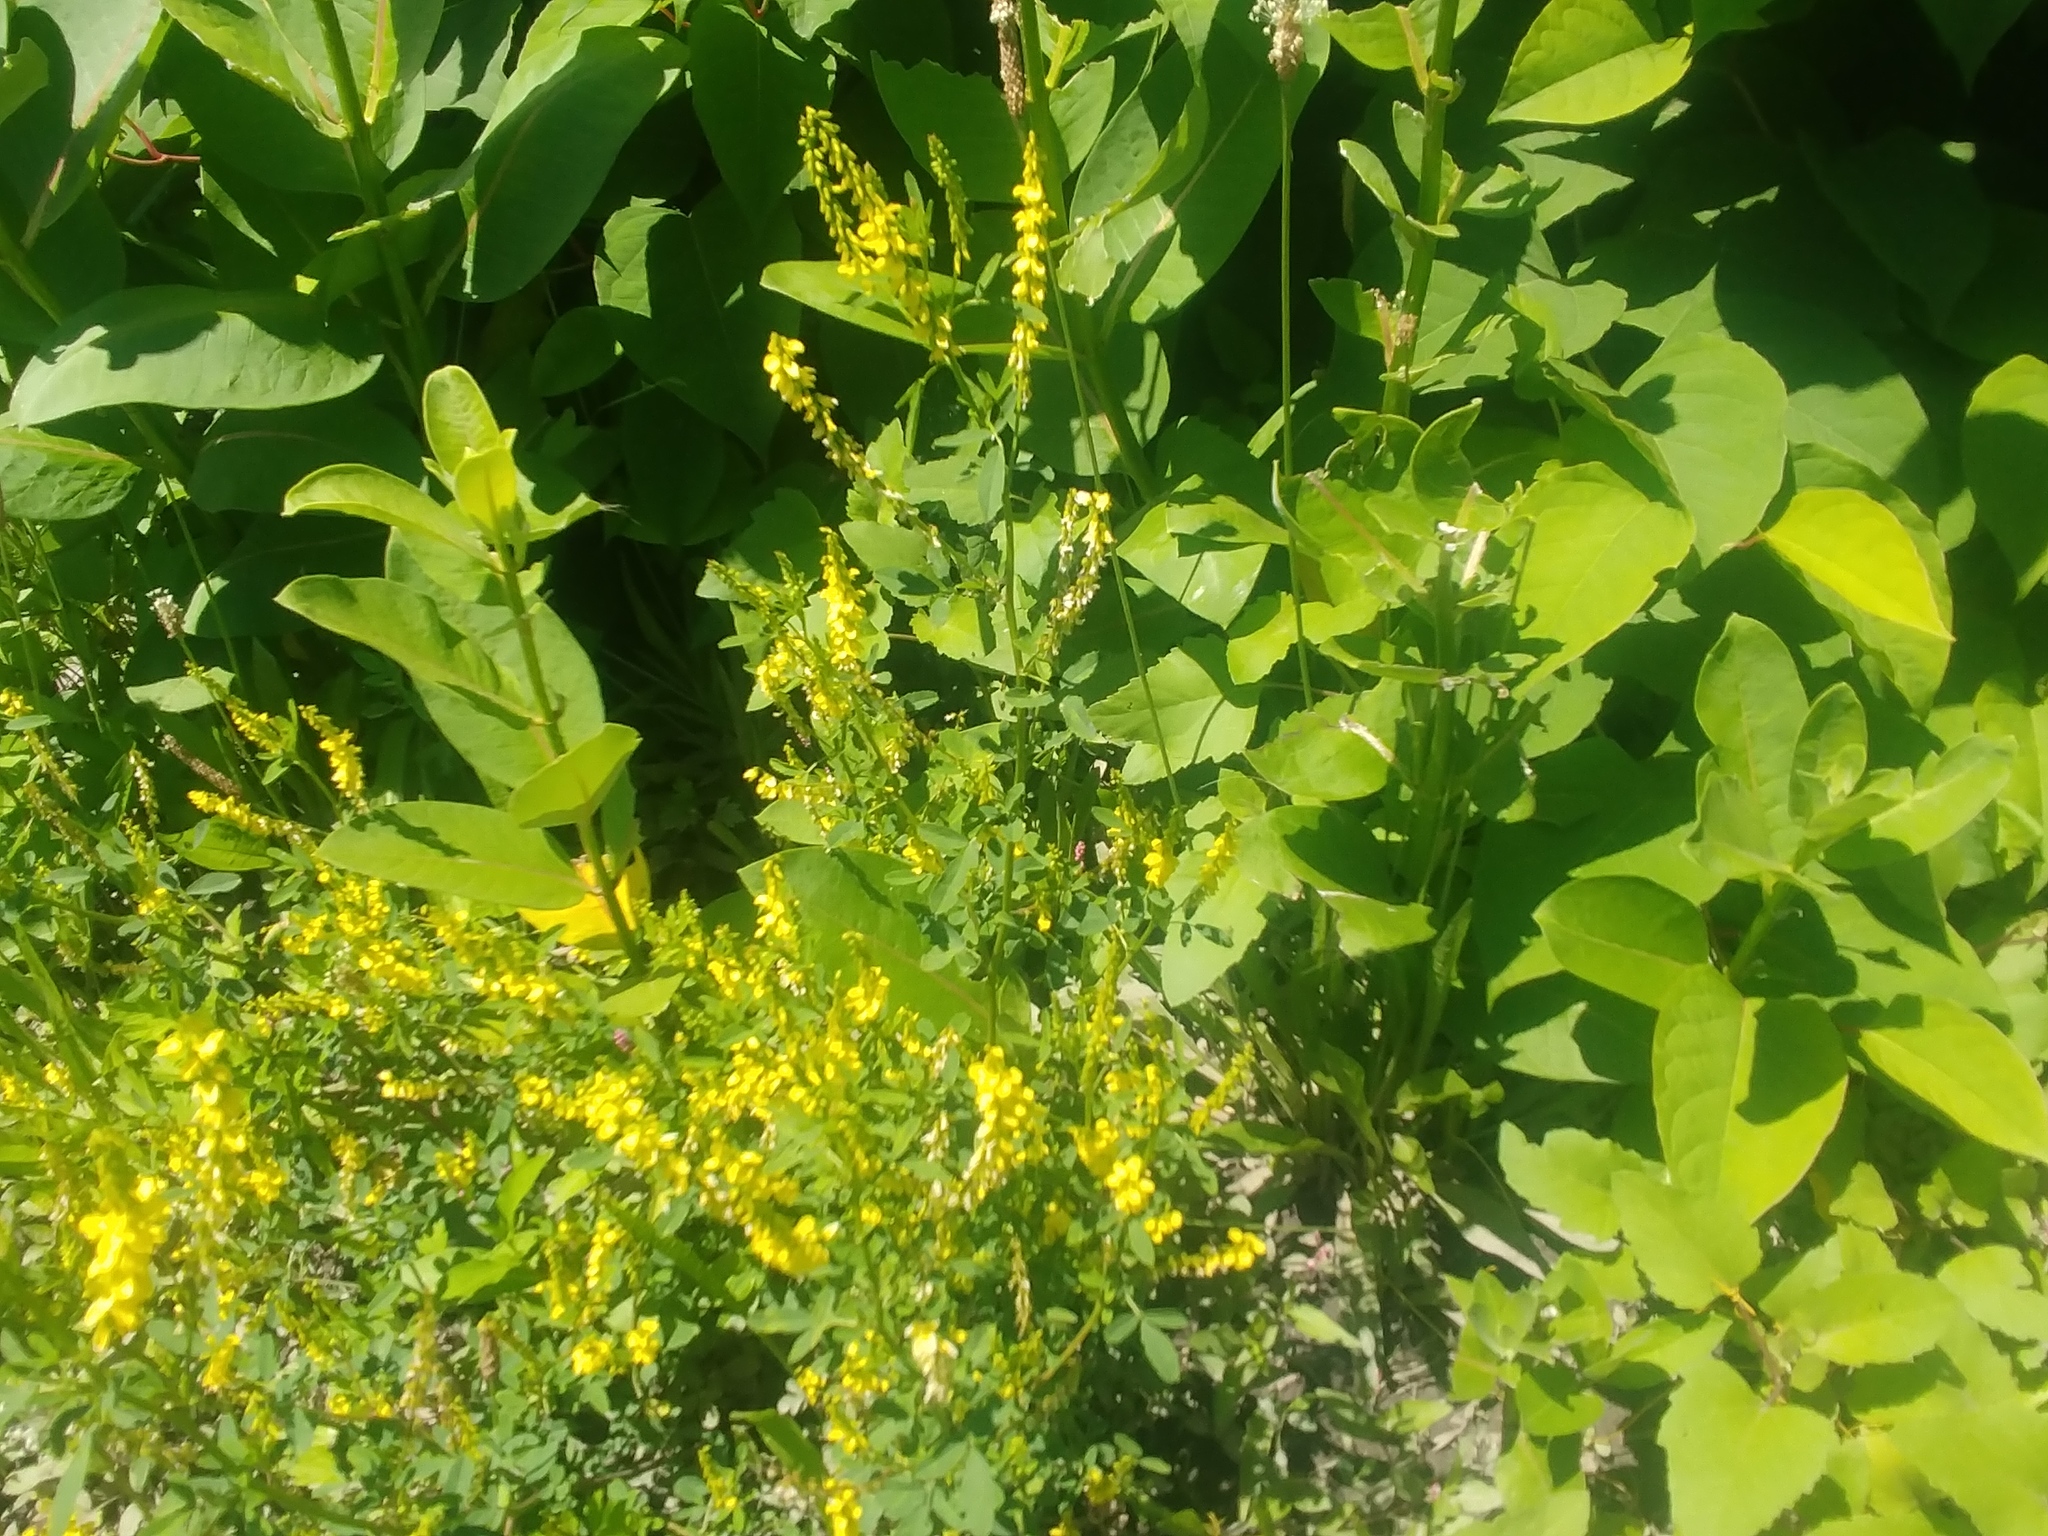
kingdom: Plantae
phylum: Tracheophyta
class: Magnoliopsida
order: Fabales
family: Fabaceae
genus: Melilotus
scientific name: Melilotus officinalis
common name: Sweetclover
